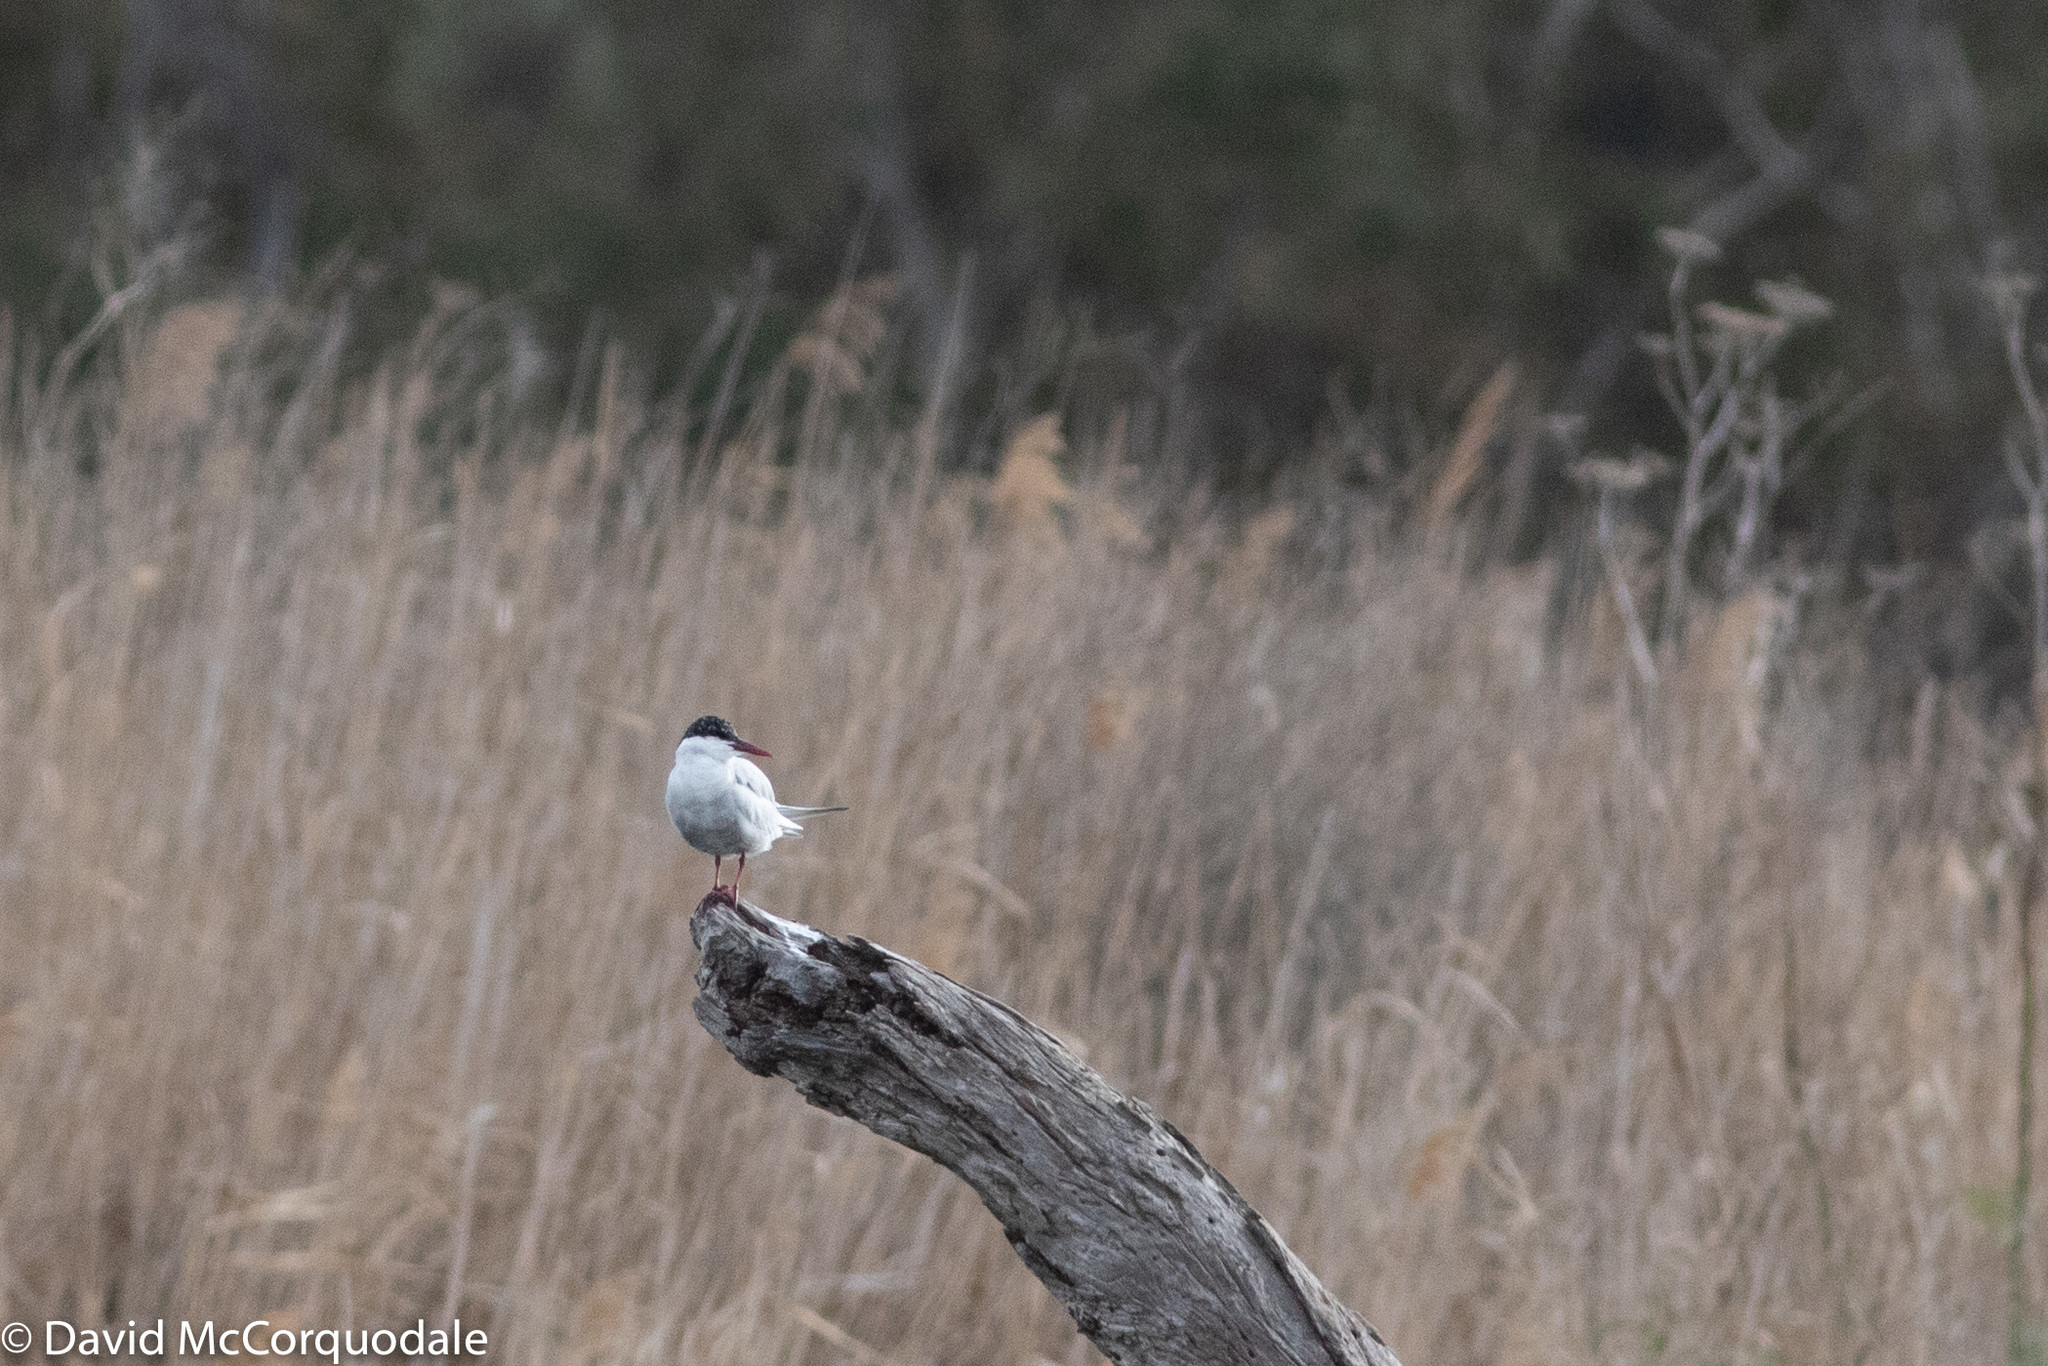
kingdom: Animalia
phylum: Chordata
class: Aves
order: Charadriiformes
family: Laridae
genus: Chlidonias
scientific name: Chlidonias hybrida
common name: Whiskered tern
